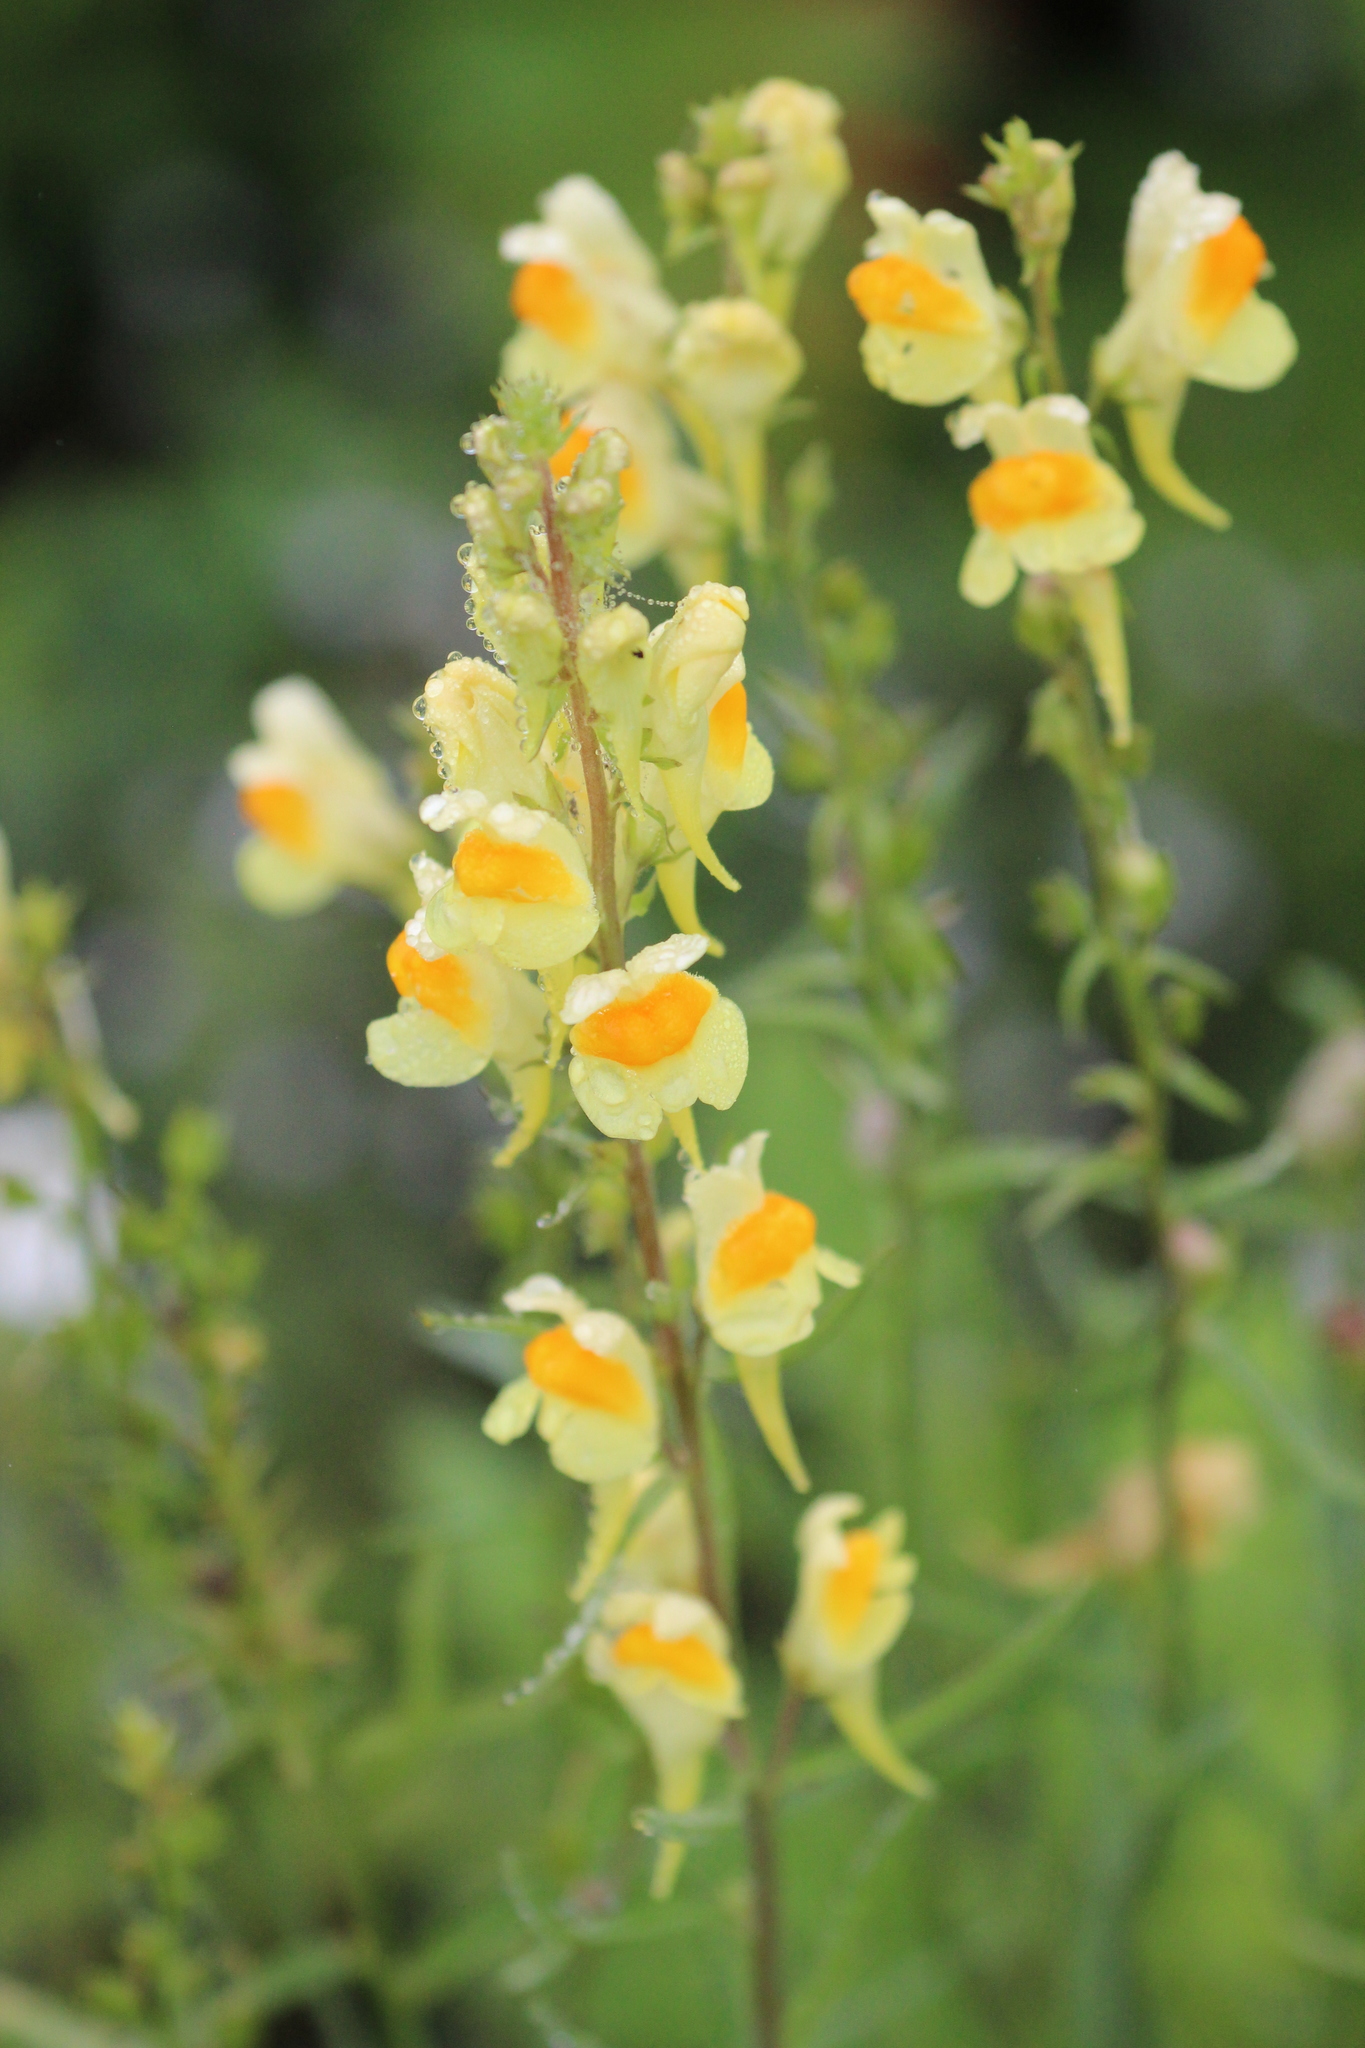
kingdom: Plantae
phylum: Tracheophyta
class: Magnoliopsida
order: Lamiales
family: Plantaginaceae
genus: Linaria
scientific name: Linaria vulgaris
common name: Butter and eggs
